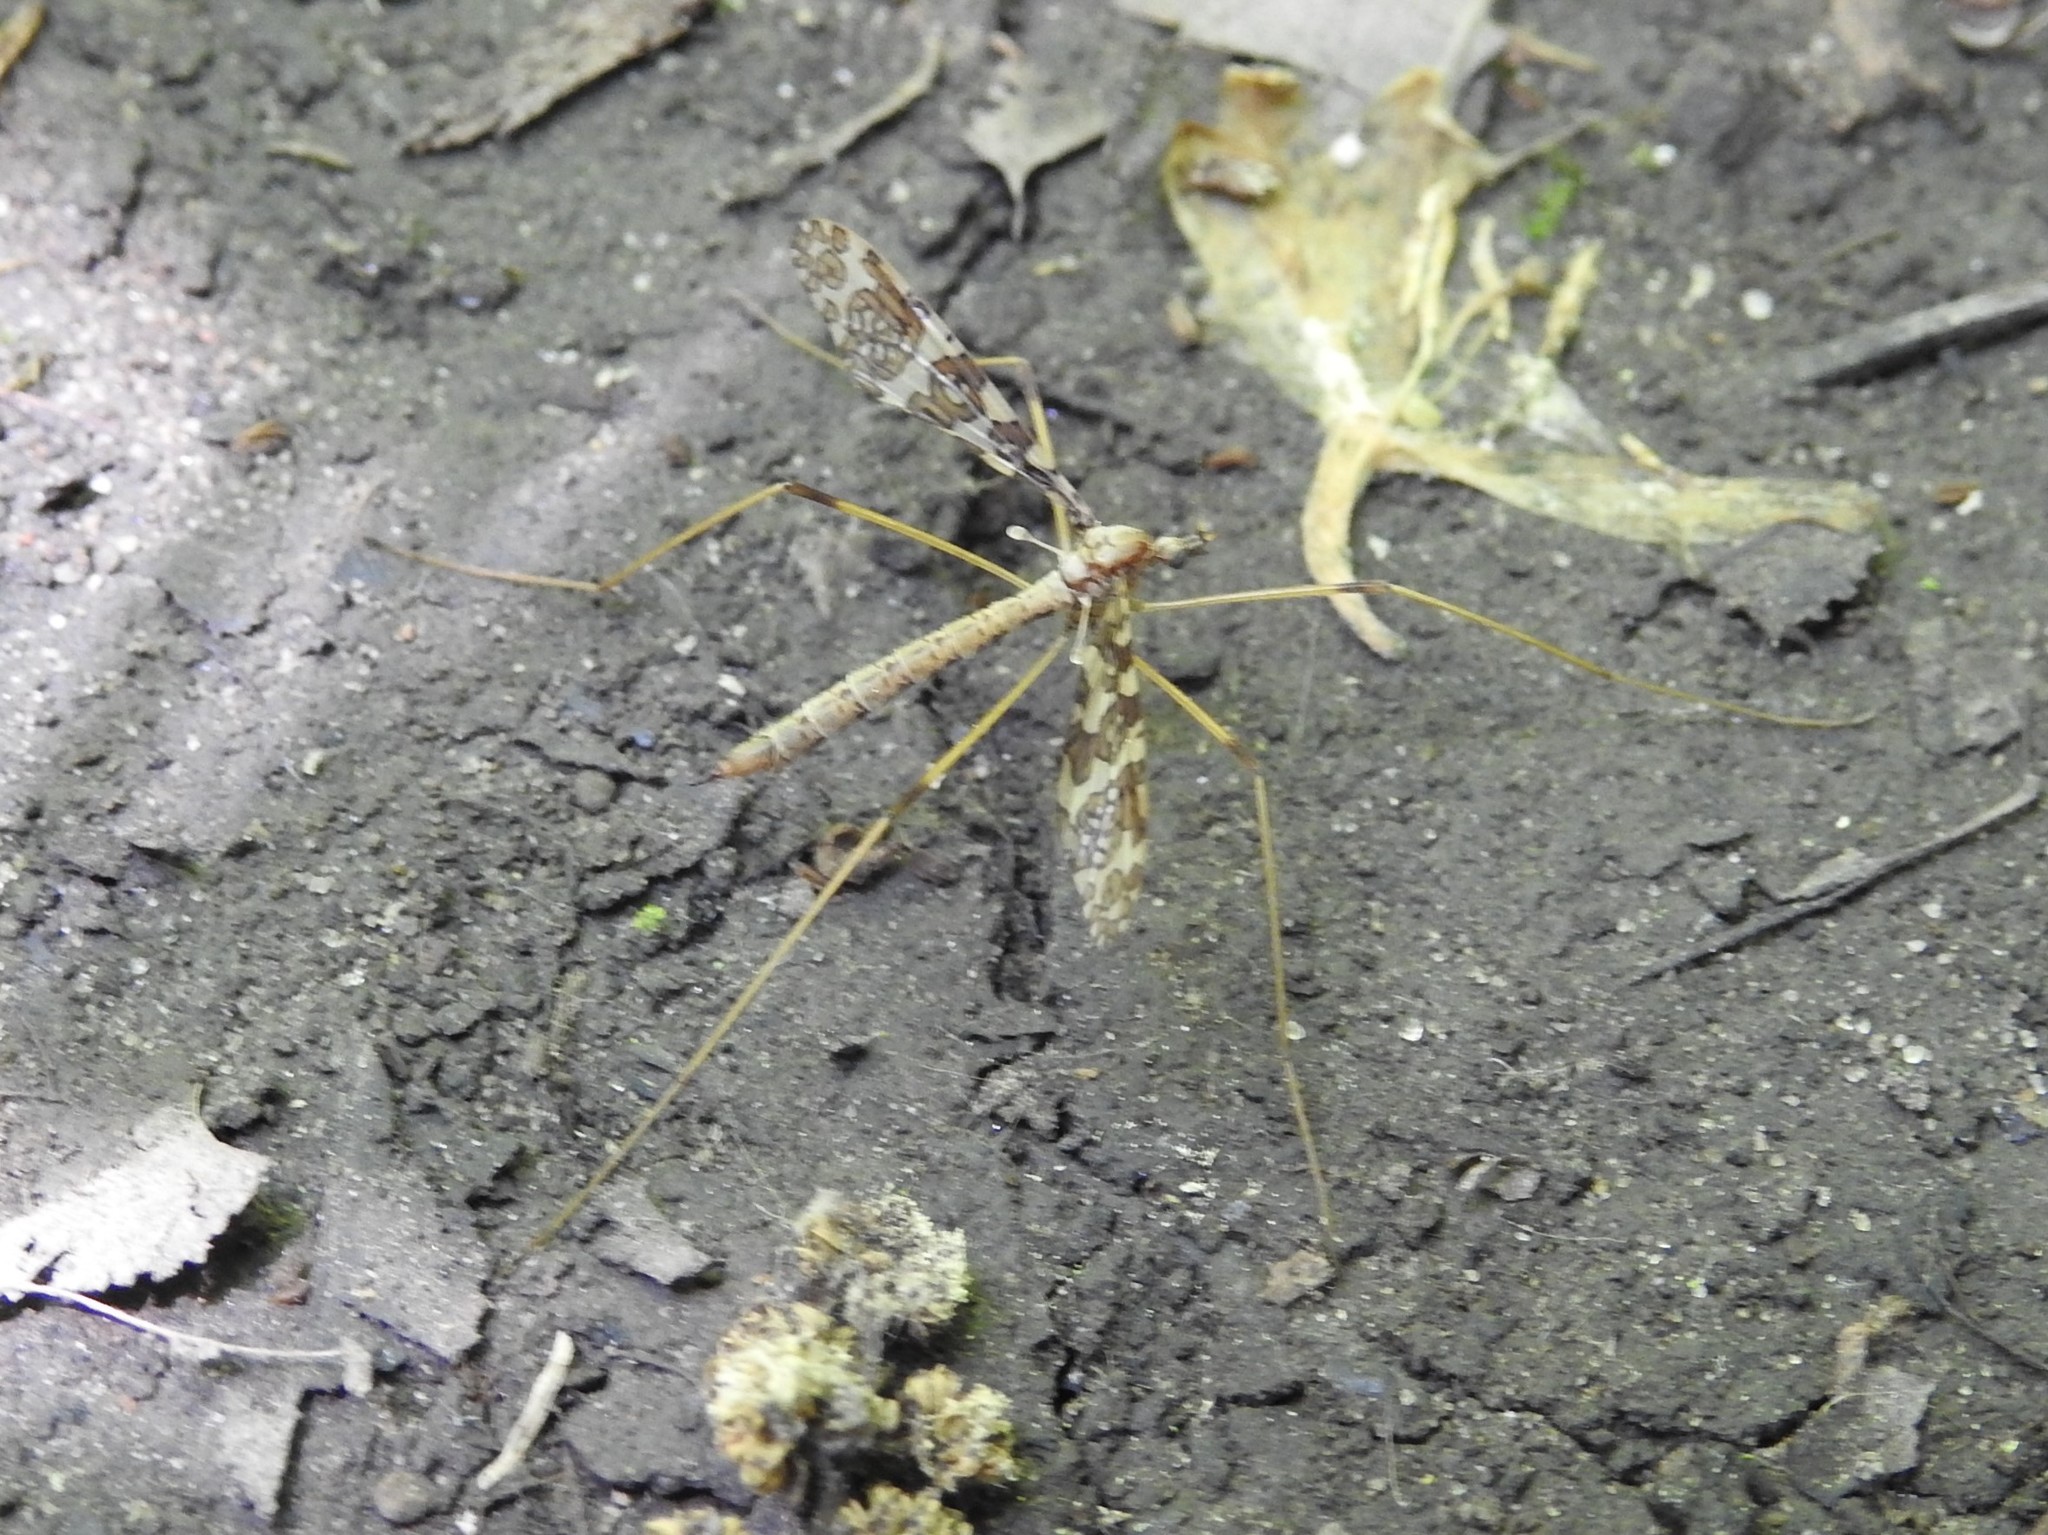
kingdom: Animalia
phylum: Arthropoda
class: Insecta
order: Diptera
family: Limoniidae
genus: Epiphragma
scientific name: Epiphragma fasciapenne
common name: Band-winged crane fly
